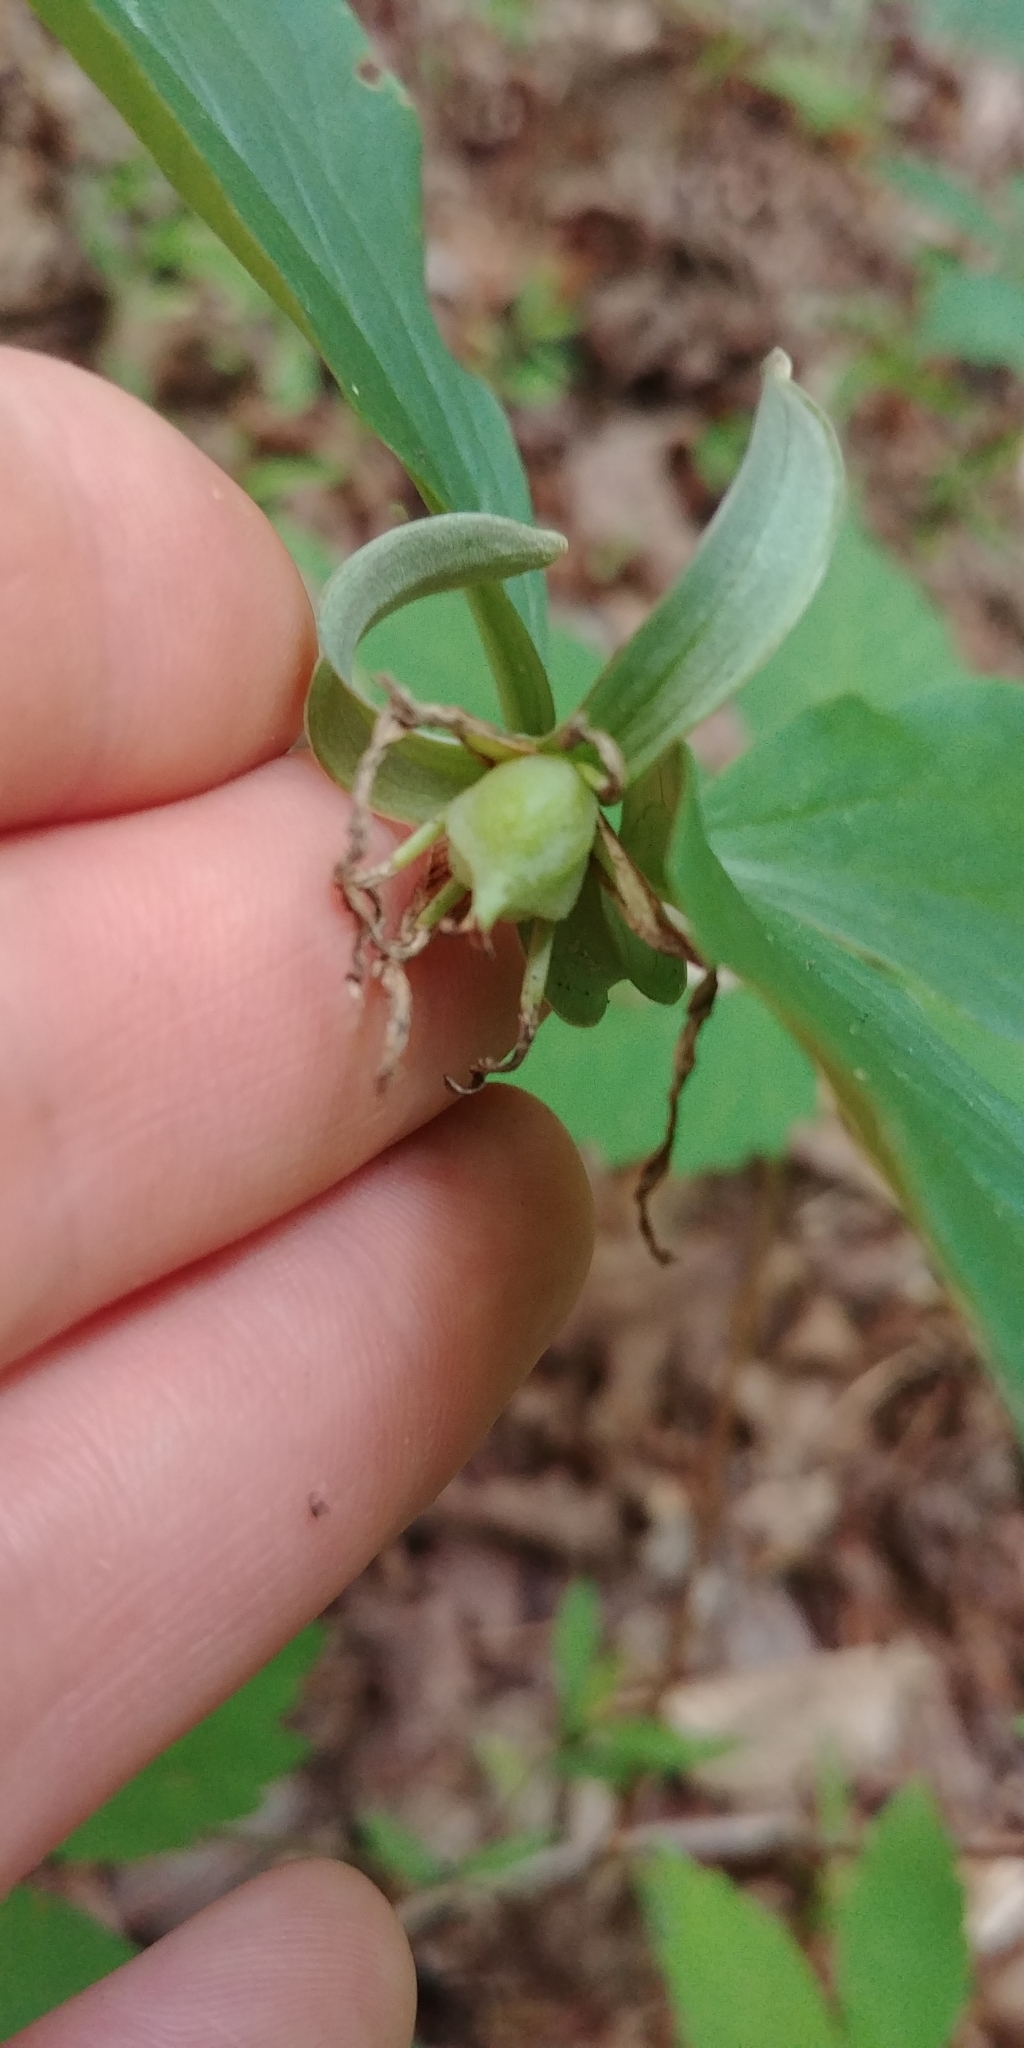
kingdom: Plantae
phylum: Tracheophyta
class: Liliopsida
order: Liliales
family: Melanthiaceae
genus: Trillium
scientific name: Trillium catesbaei
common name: Bashful trillium
